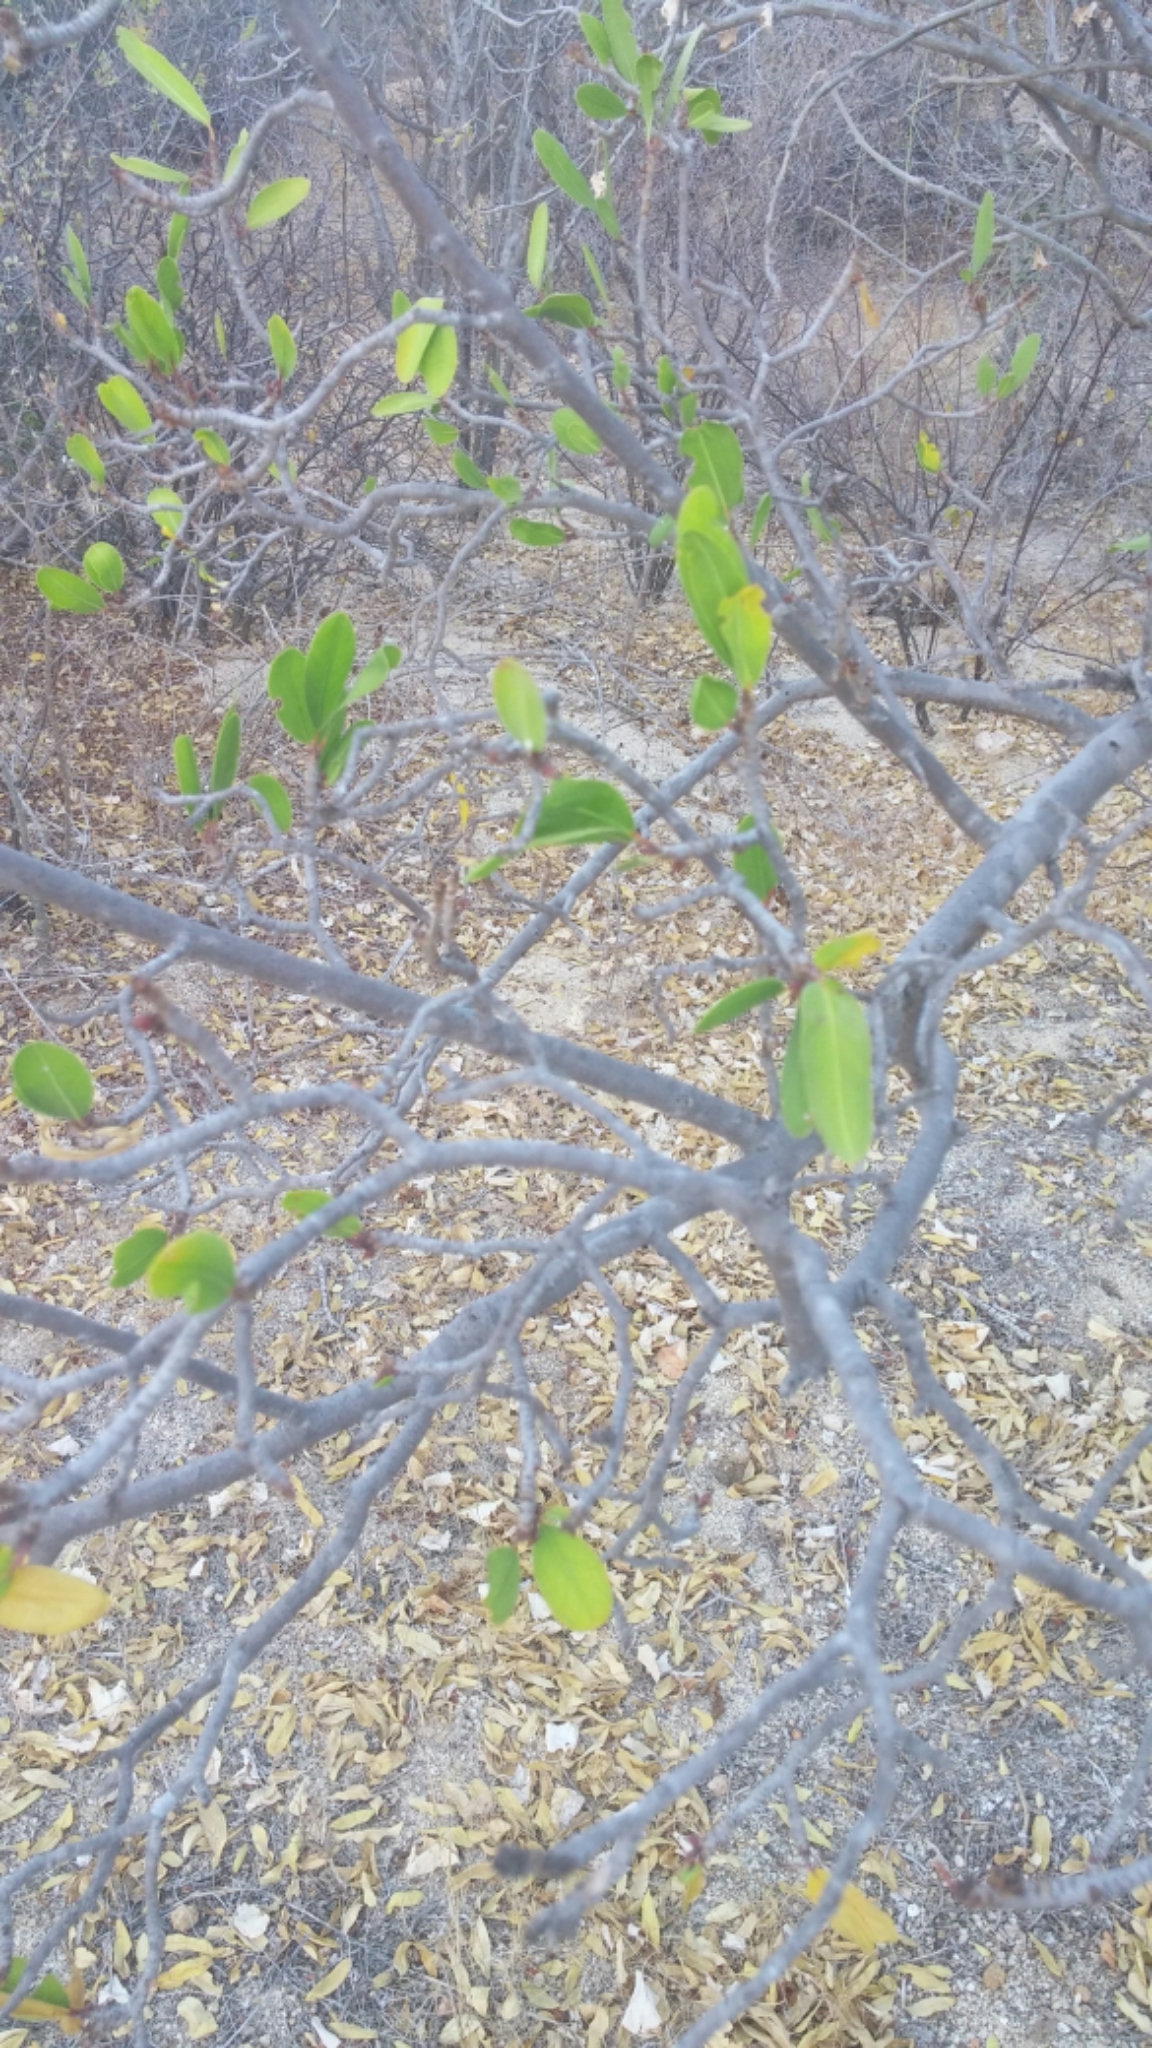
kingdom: Plantae
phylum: Tracheophyta
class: Magnoliopsida
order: Malpighiales
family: Euphorbiaceae
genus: Pleradenophora
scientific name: Pleradenophora bilocularis
